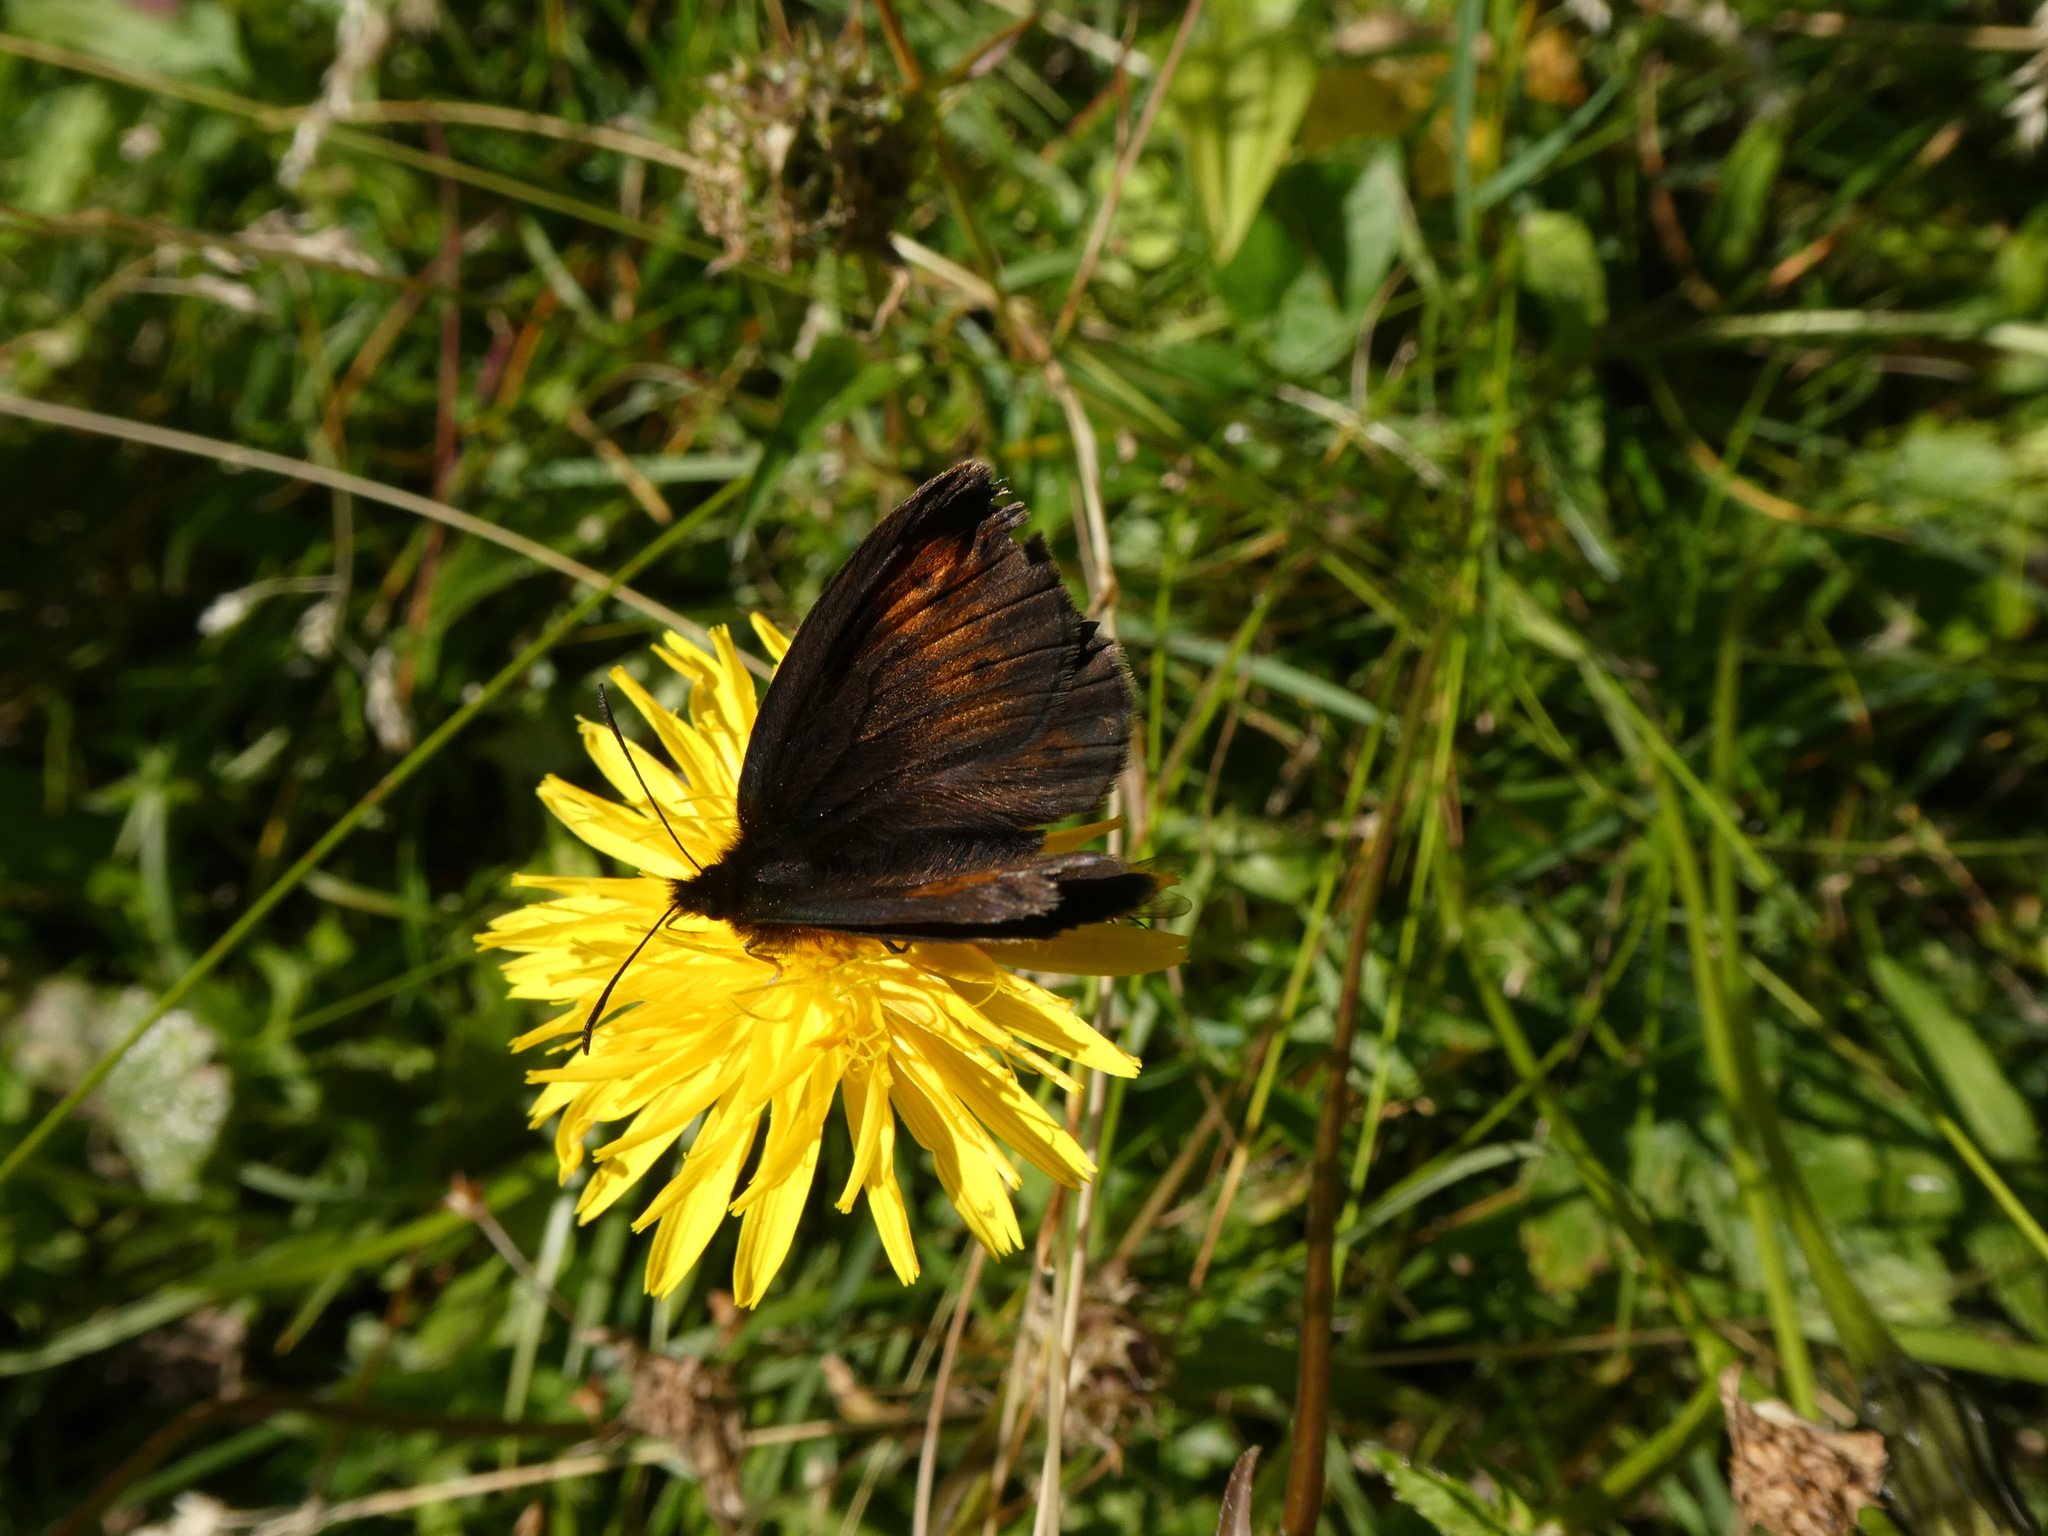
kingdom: Animalia
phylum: Arthropoda
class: Insecta
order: Lepidoptera
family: Nymphalidae
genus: Erebia
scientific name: Erebia manto
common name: Yellow-spotted ringlet
